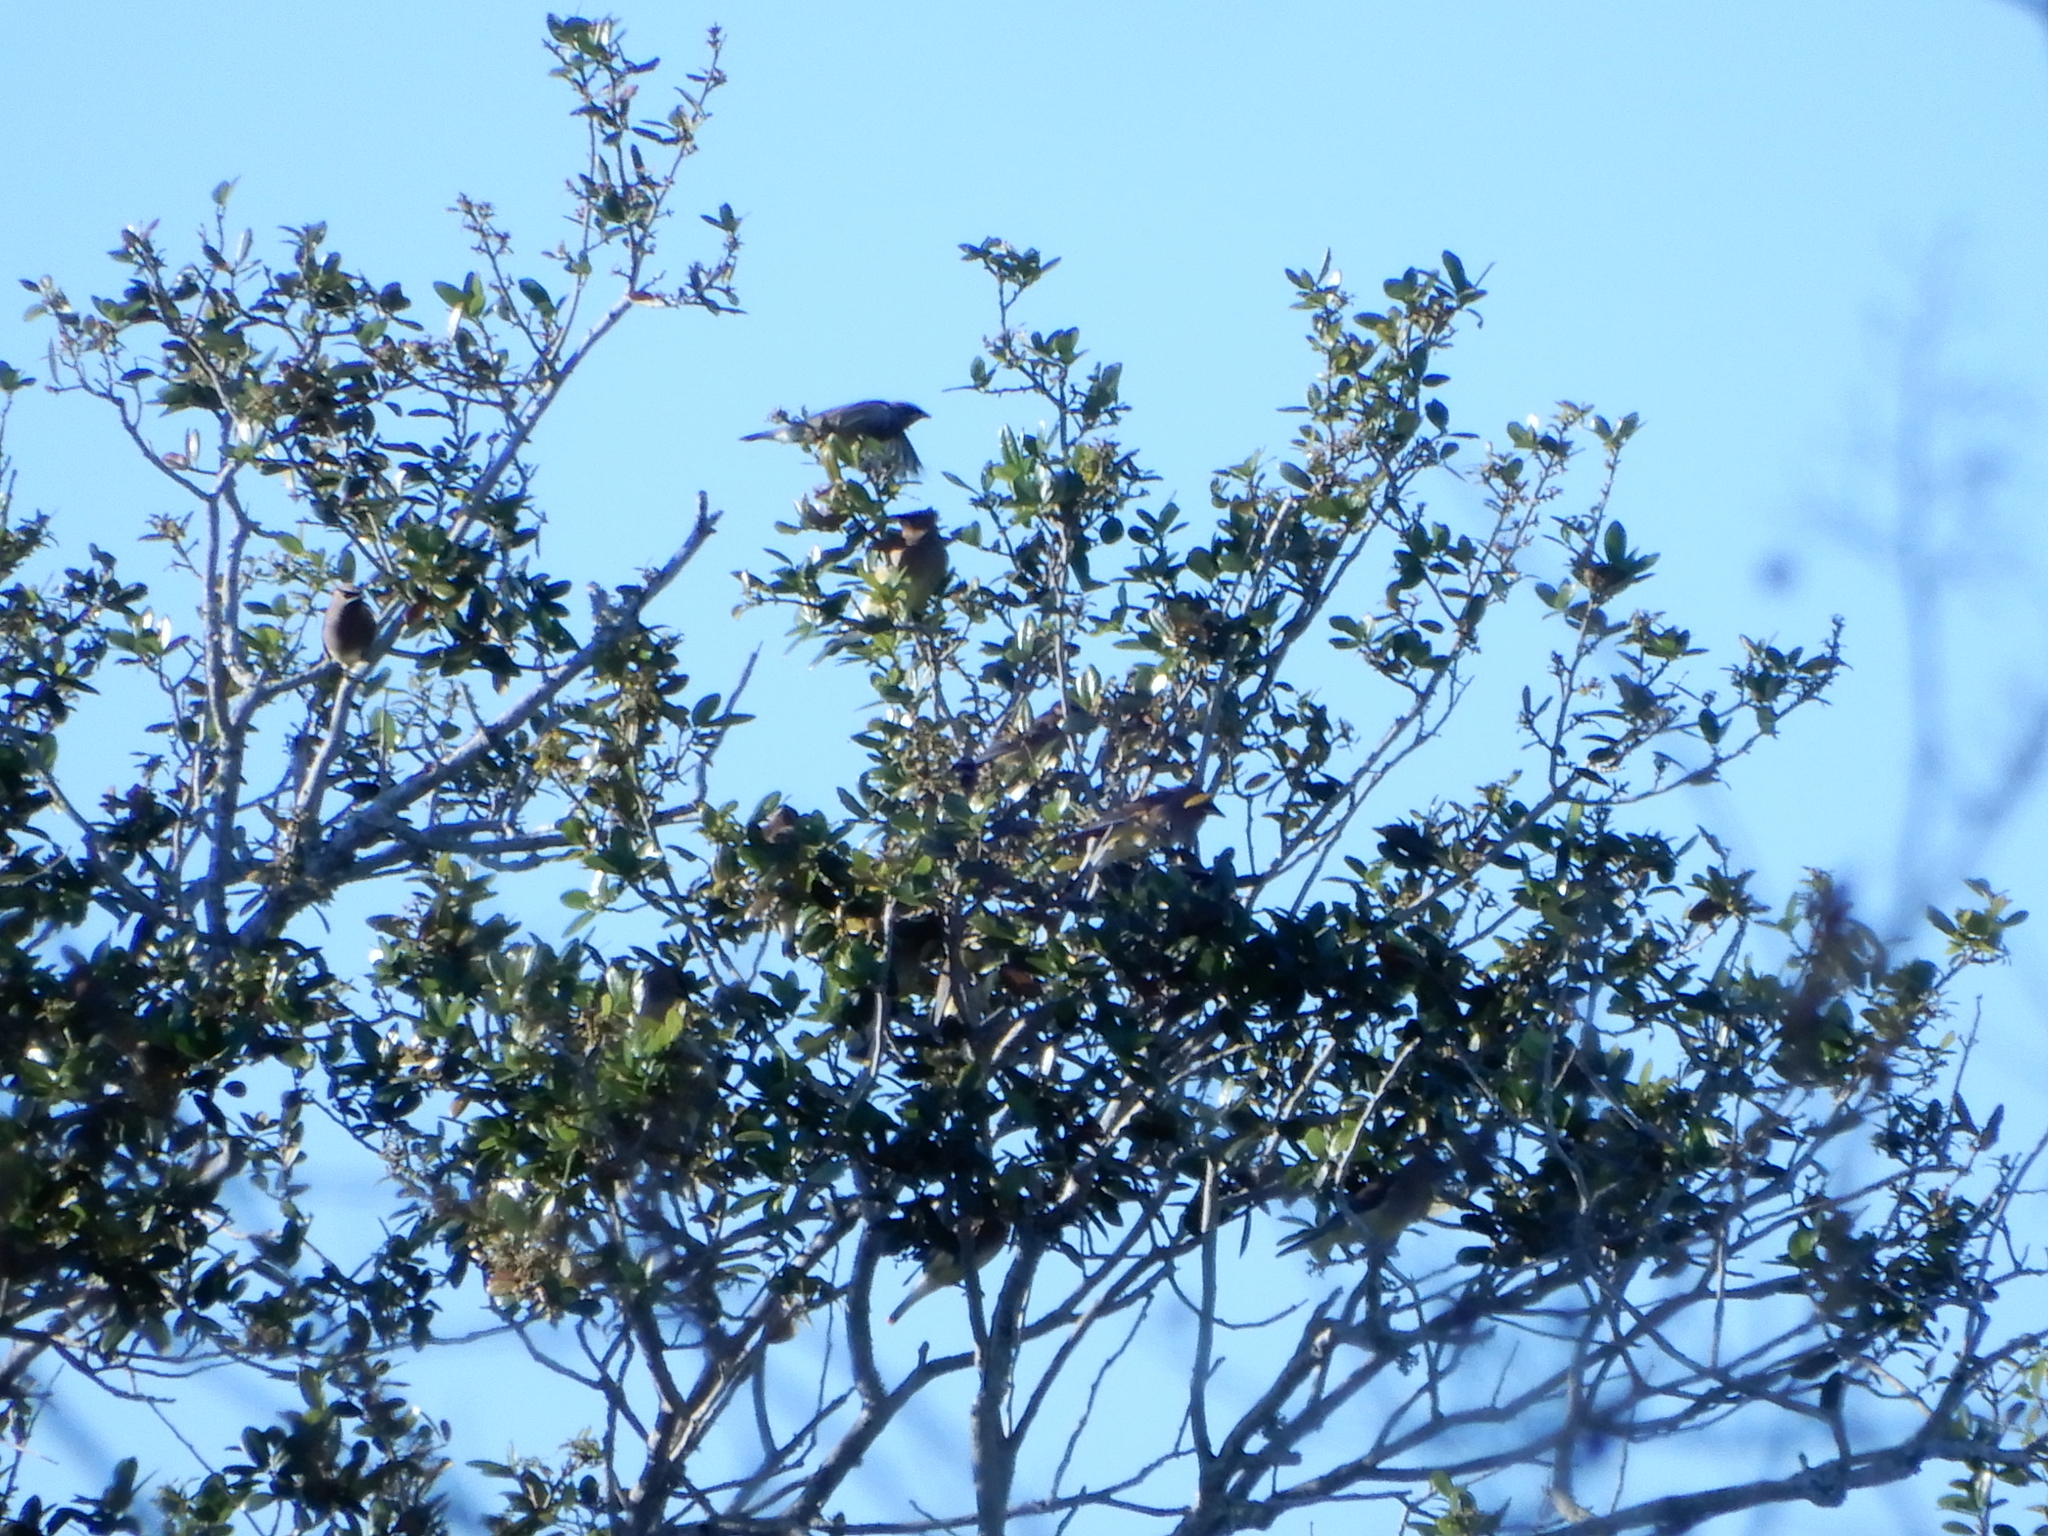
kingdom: Animalia
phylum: Chordata
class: Aves
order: Passeriformes
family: Bombycillidae
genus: Bombycilla
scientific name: Bombycilla cedrorum
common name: Cedar waxwing
